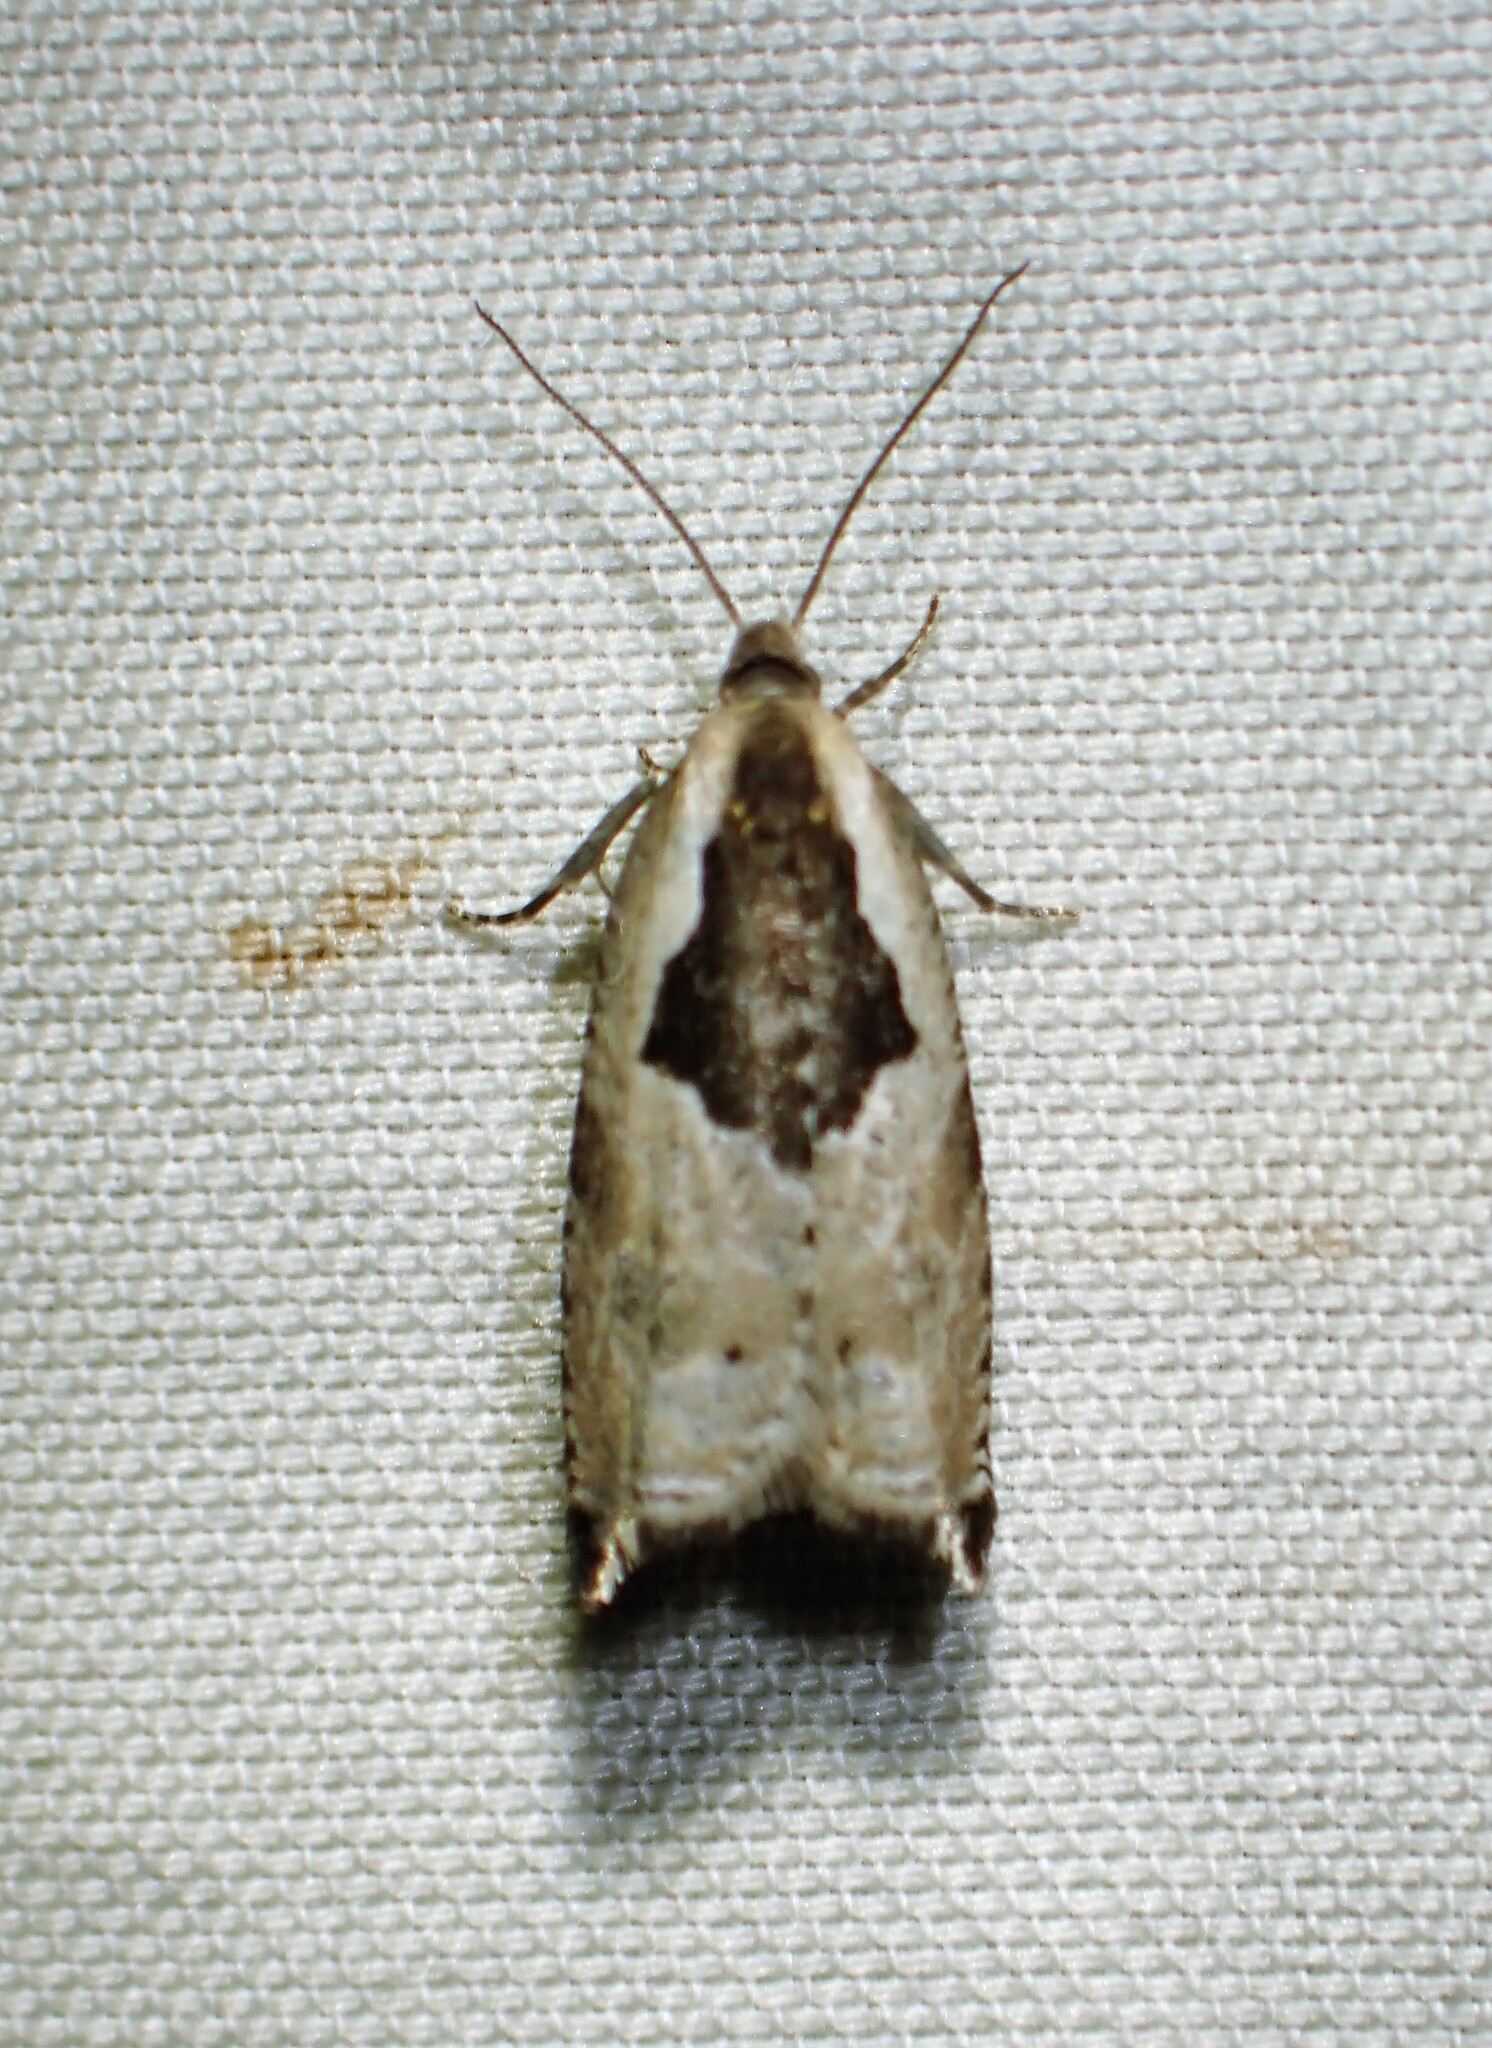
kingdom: Animalia
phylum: Arthropoda
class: Insecta
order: Lepidoptera
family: Tortricidae
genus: Ancylis
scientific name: Ancylis subaequana
